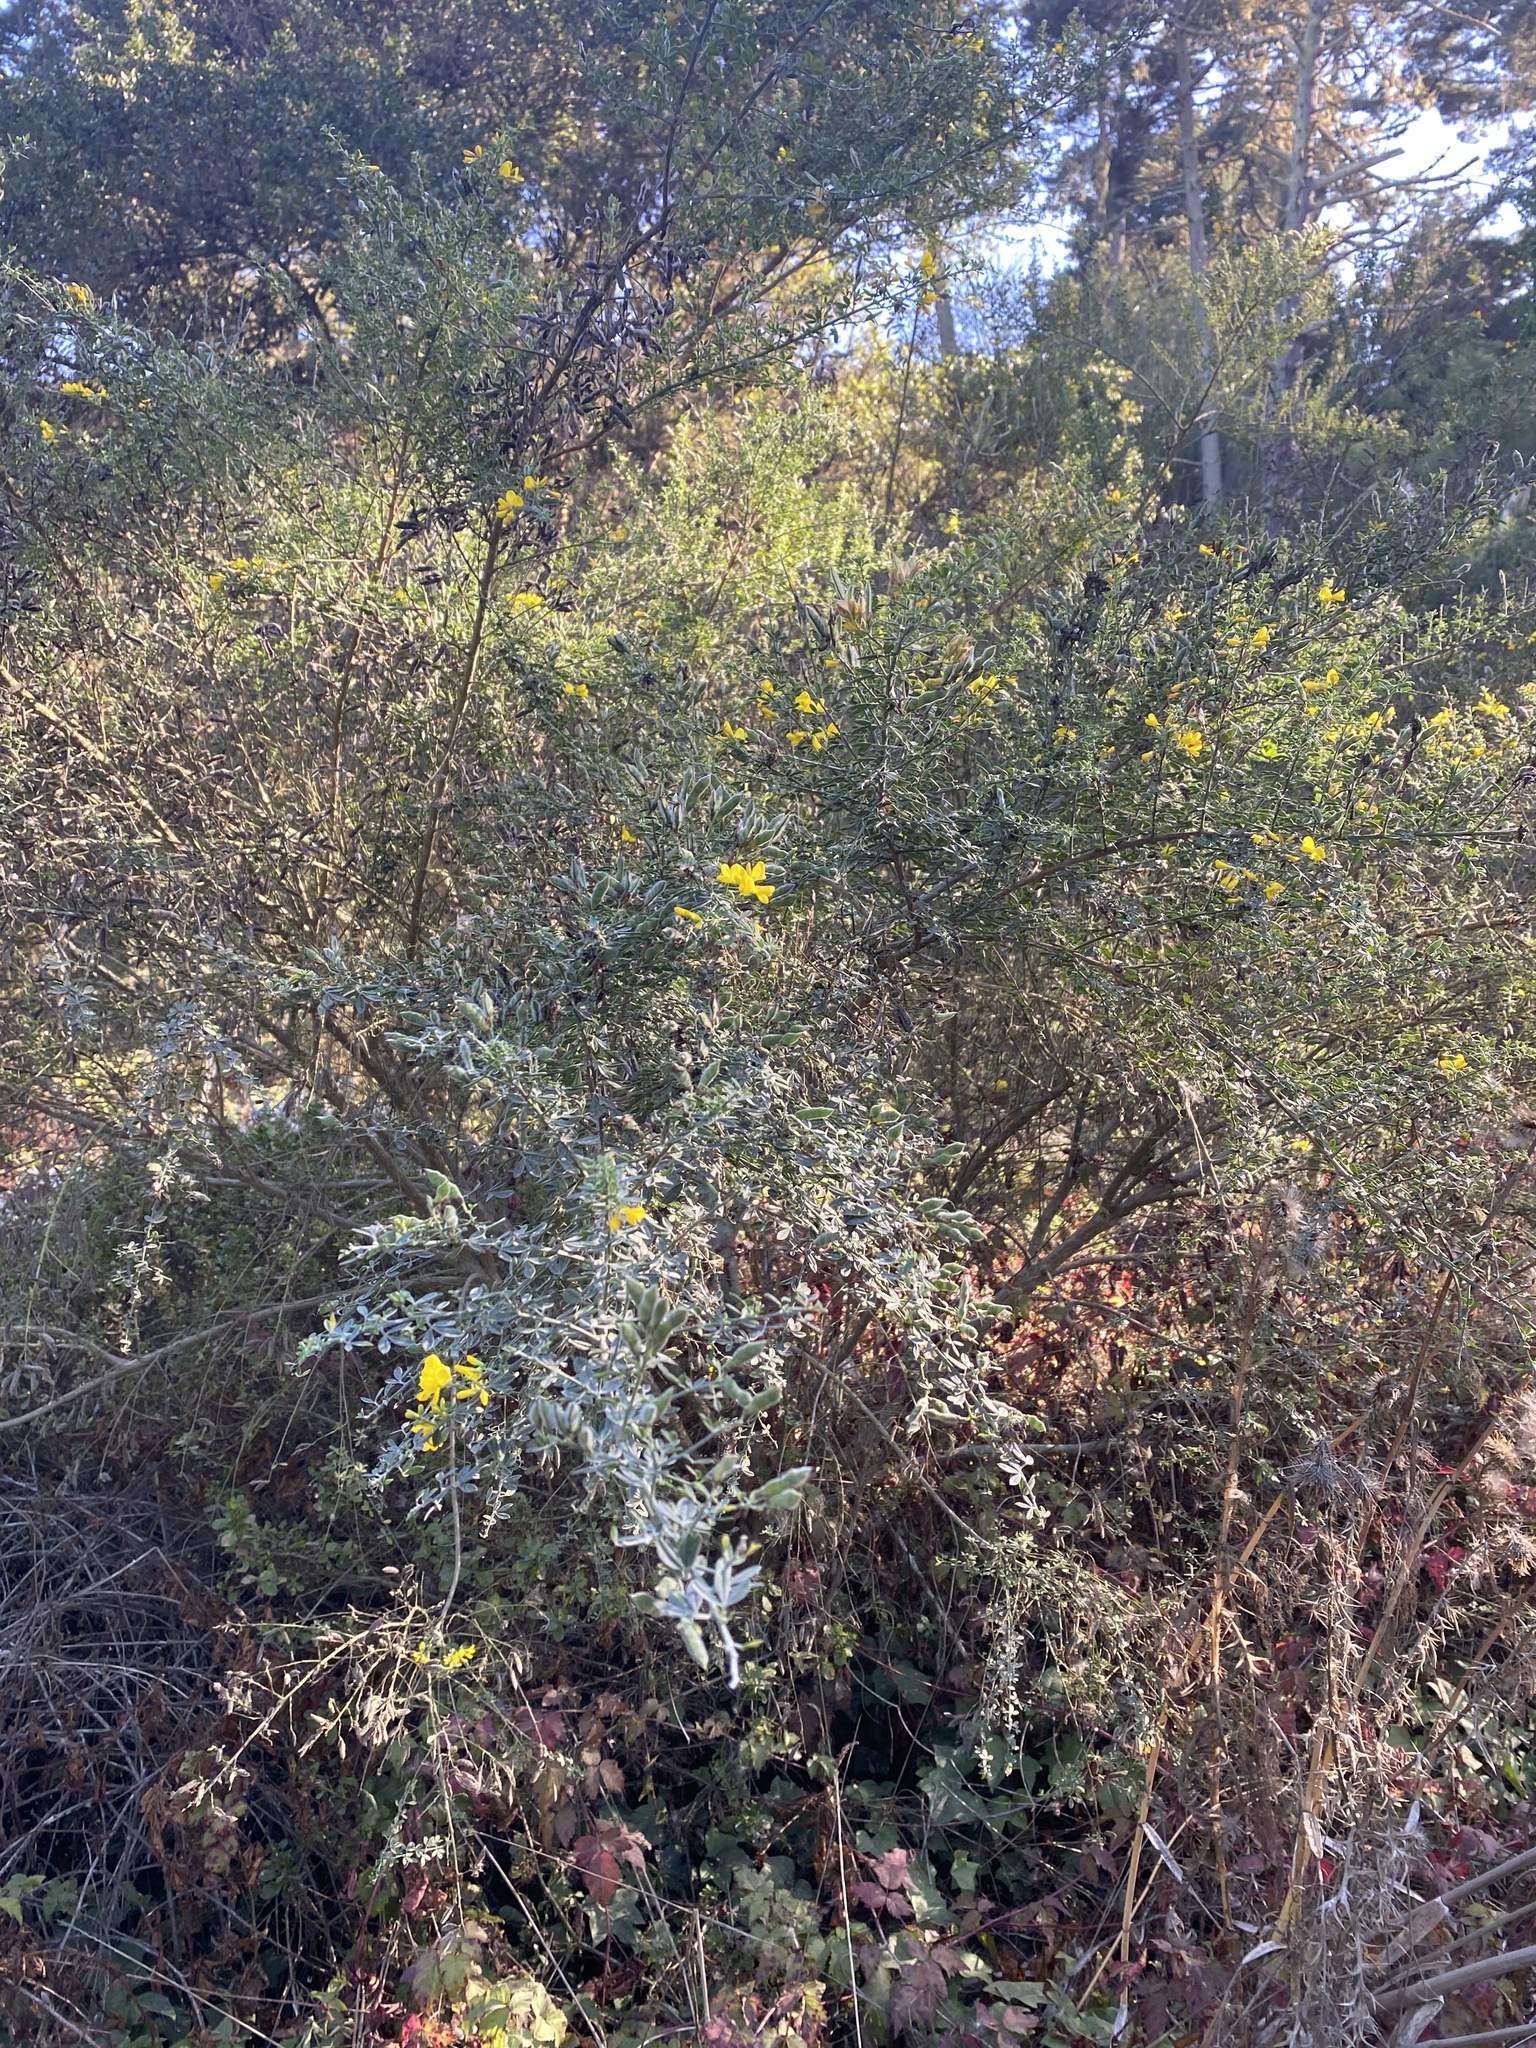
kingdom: Plantae
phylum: Tracheophyta
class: Magnoliopsida
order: Fabales
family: Fabaceae
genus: Genista
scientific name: Genista monspessulana
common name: Montpellier broom
